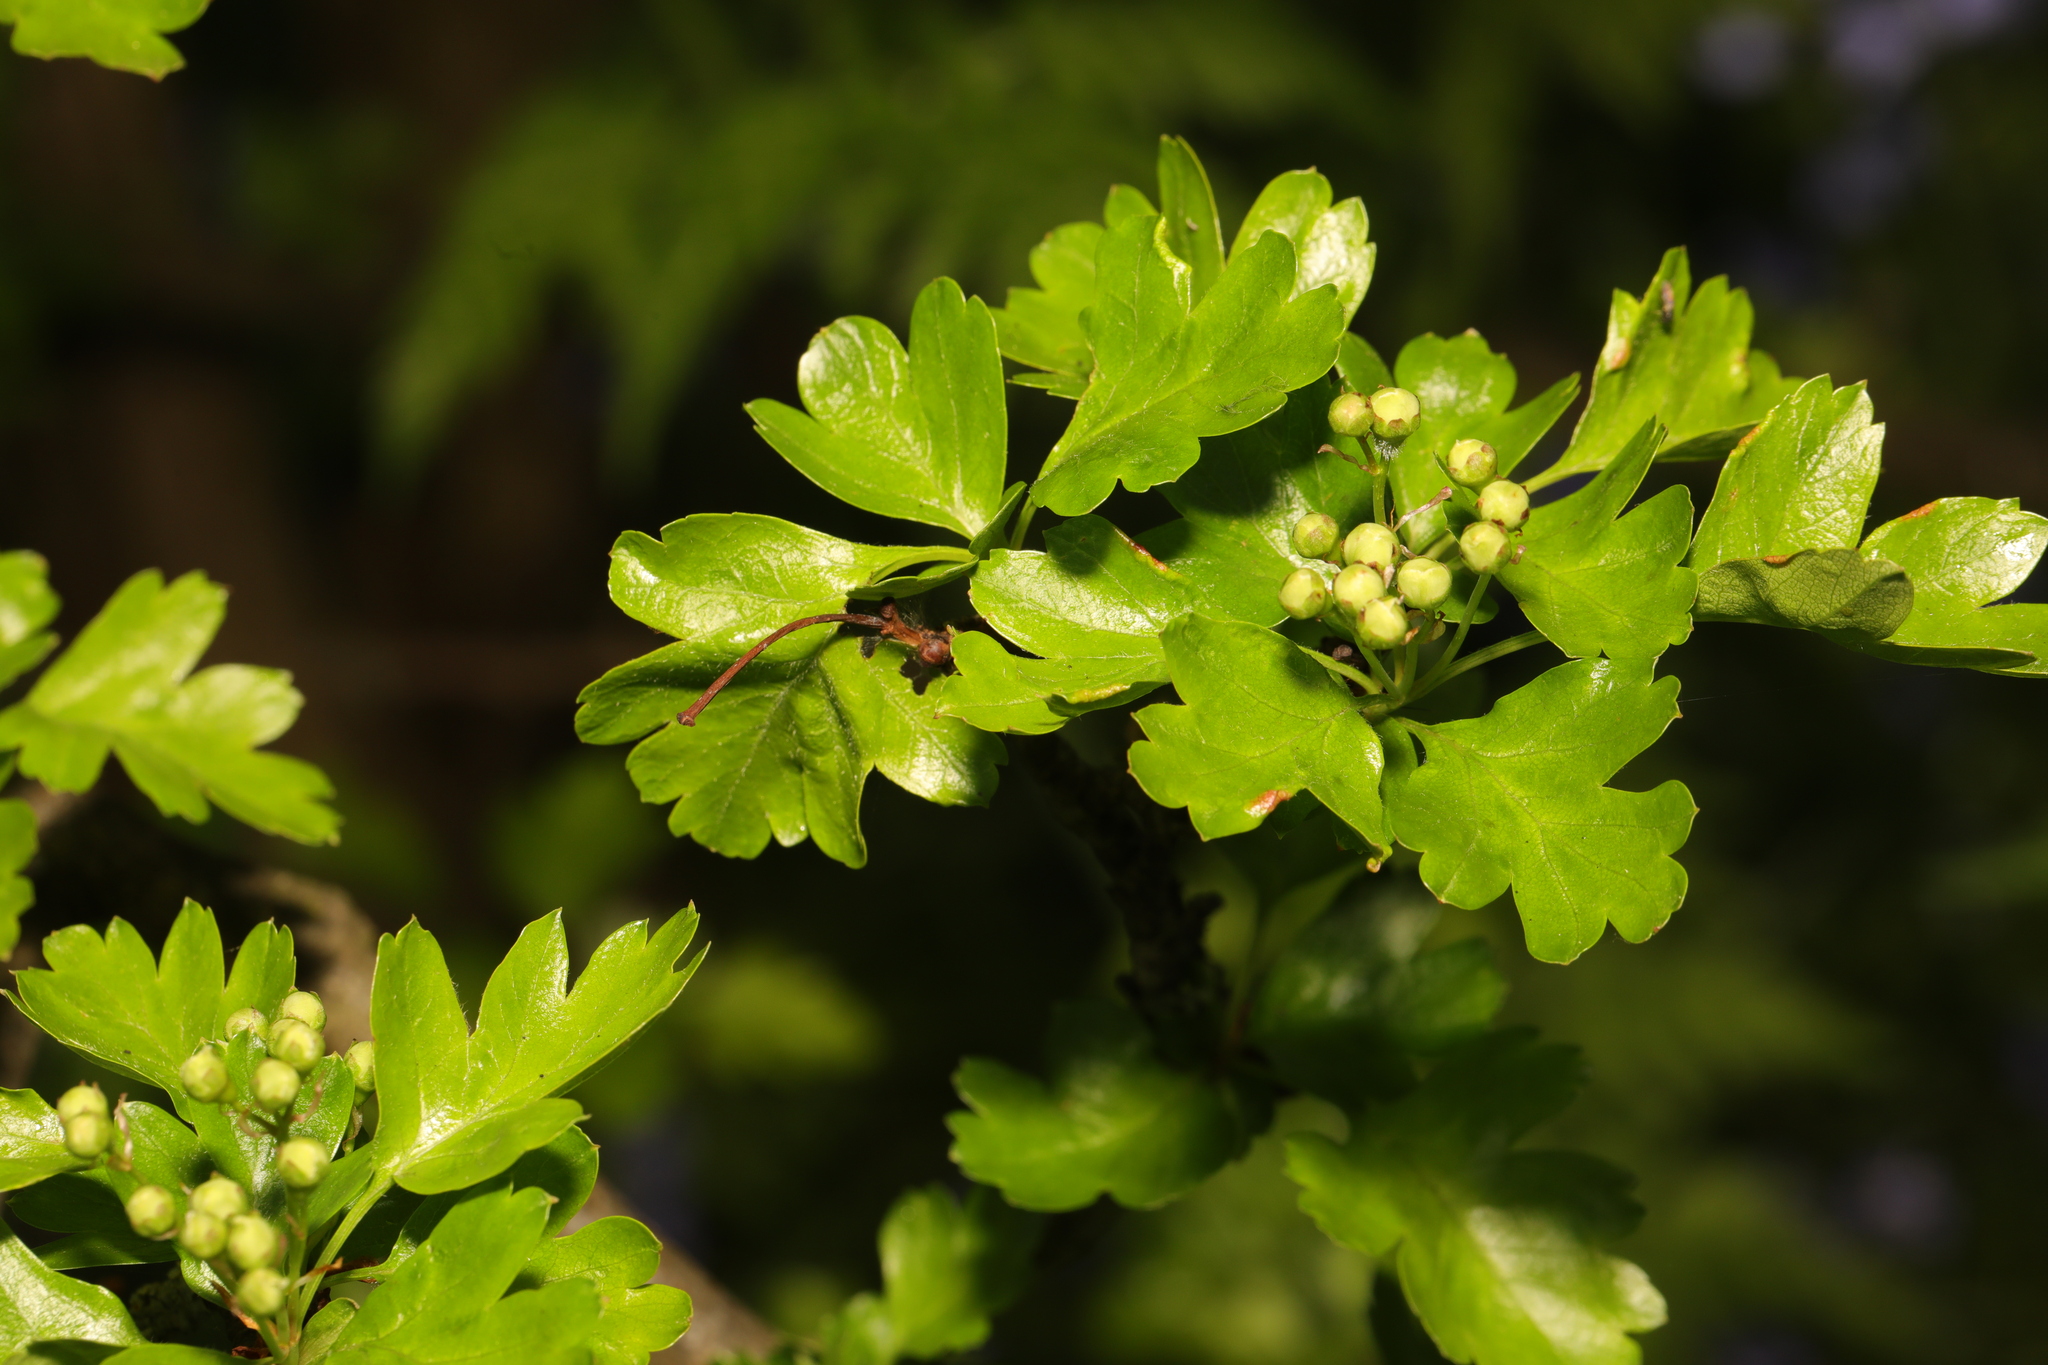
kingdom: Plantae
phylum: Tracheophyta
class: Magnoliopsida
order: Rosales
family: Rosaceae
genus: Crataegus
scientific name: Crataegus monogyna
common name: Hawthorn
